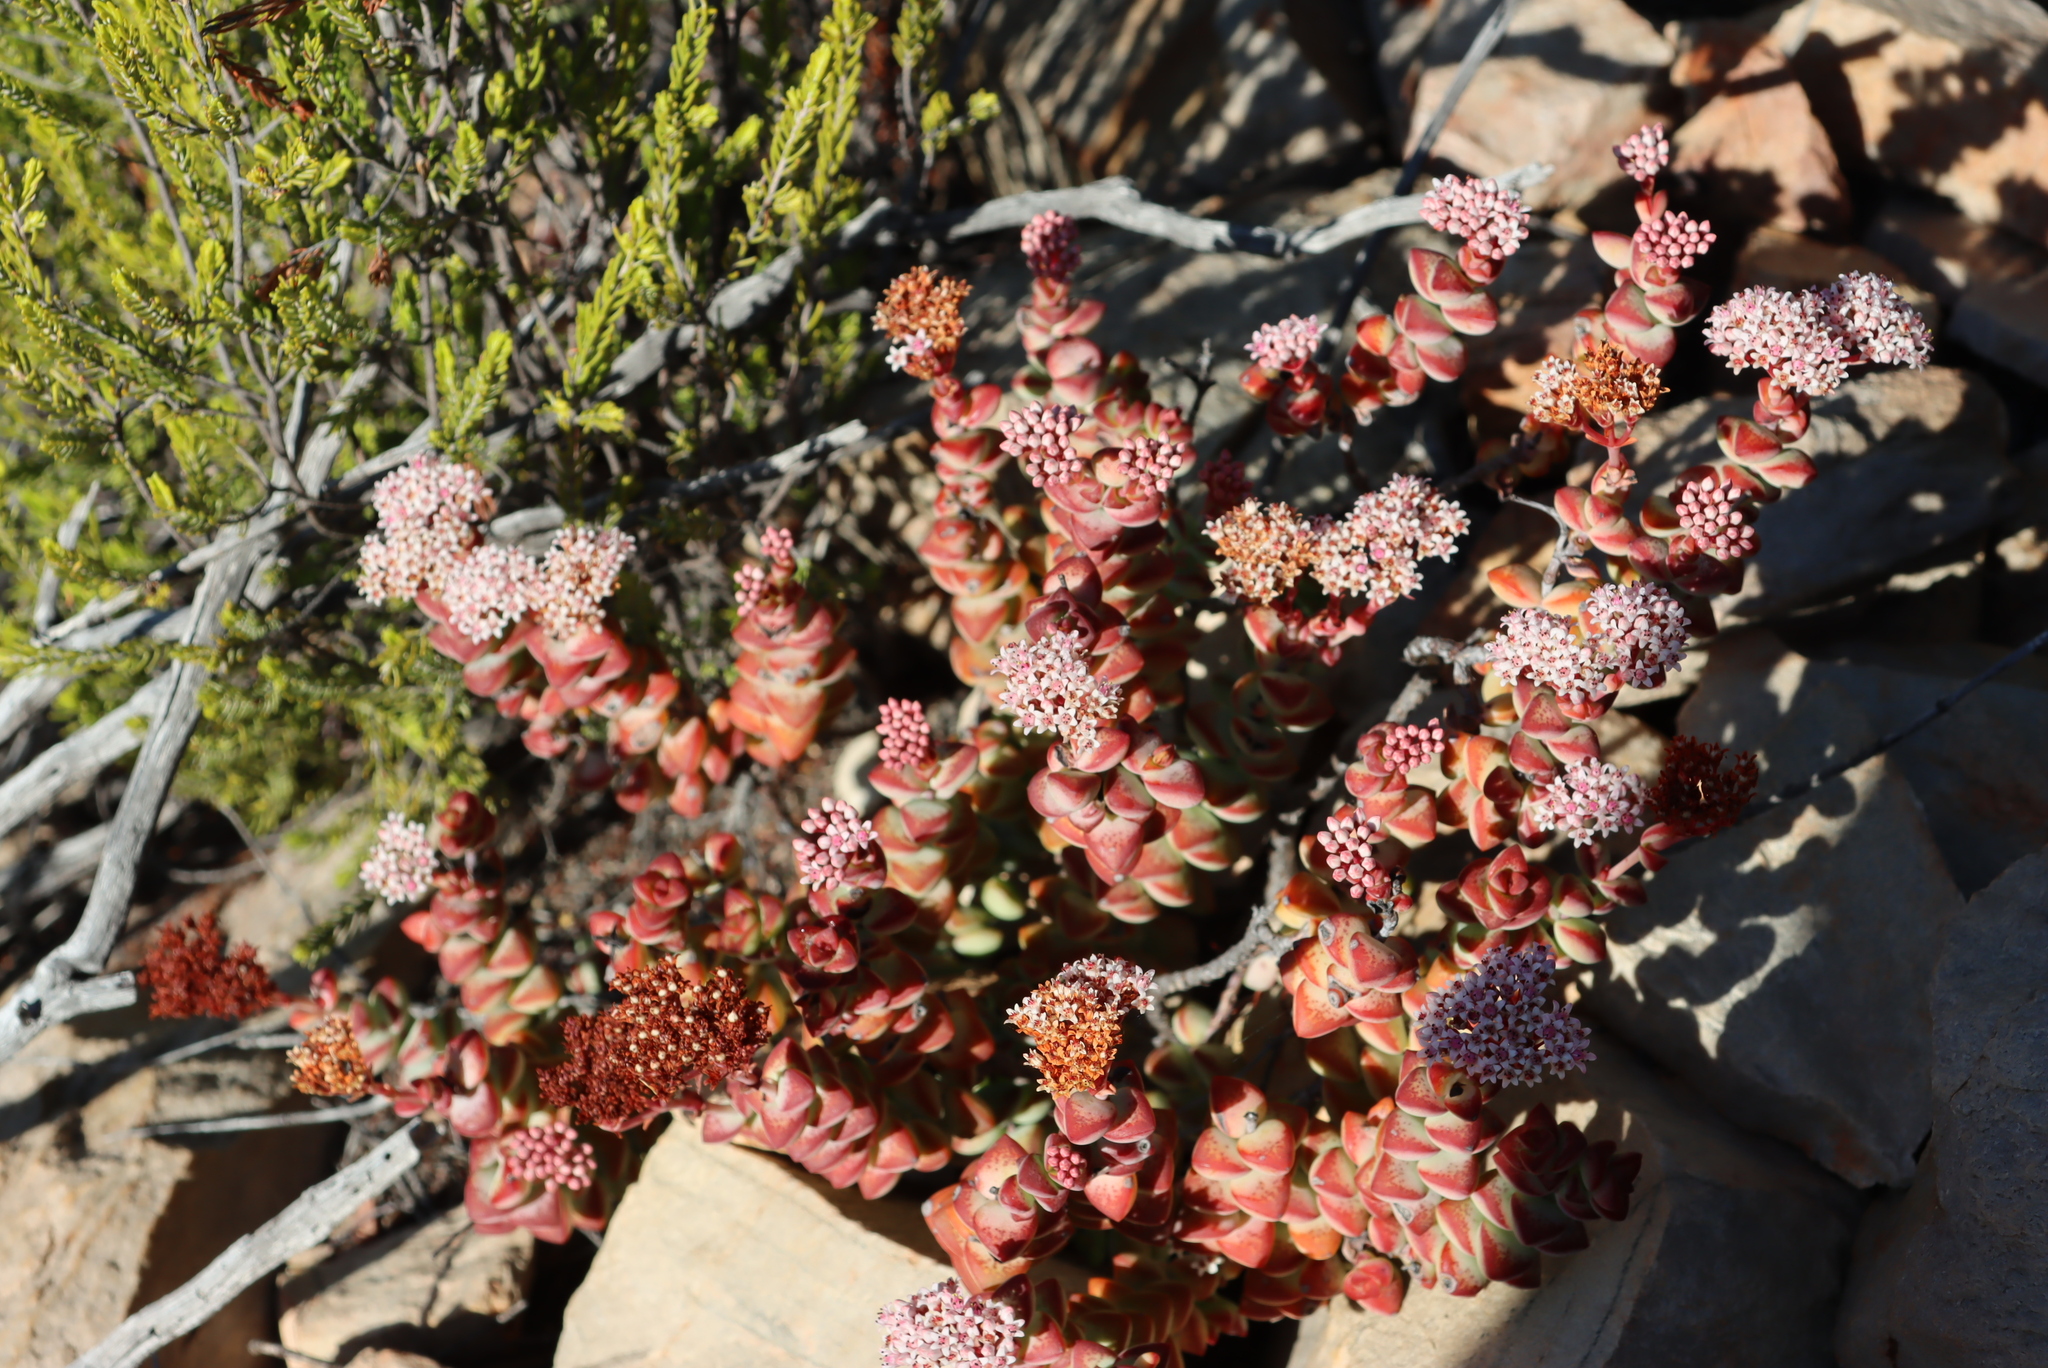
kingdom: Plantae
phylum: Tracheophyta
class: Magnoliopsida
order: Saxifragales
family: Crassulaceae
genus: Crassula
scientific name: Crassula rupestris
